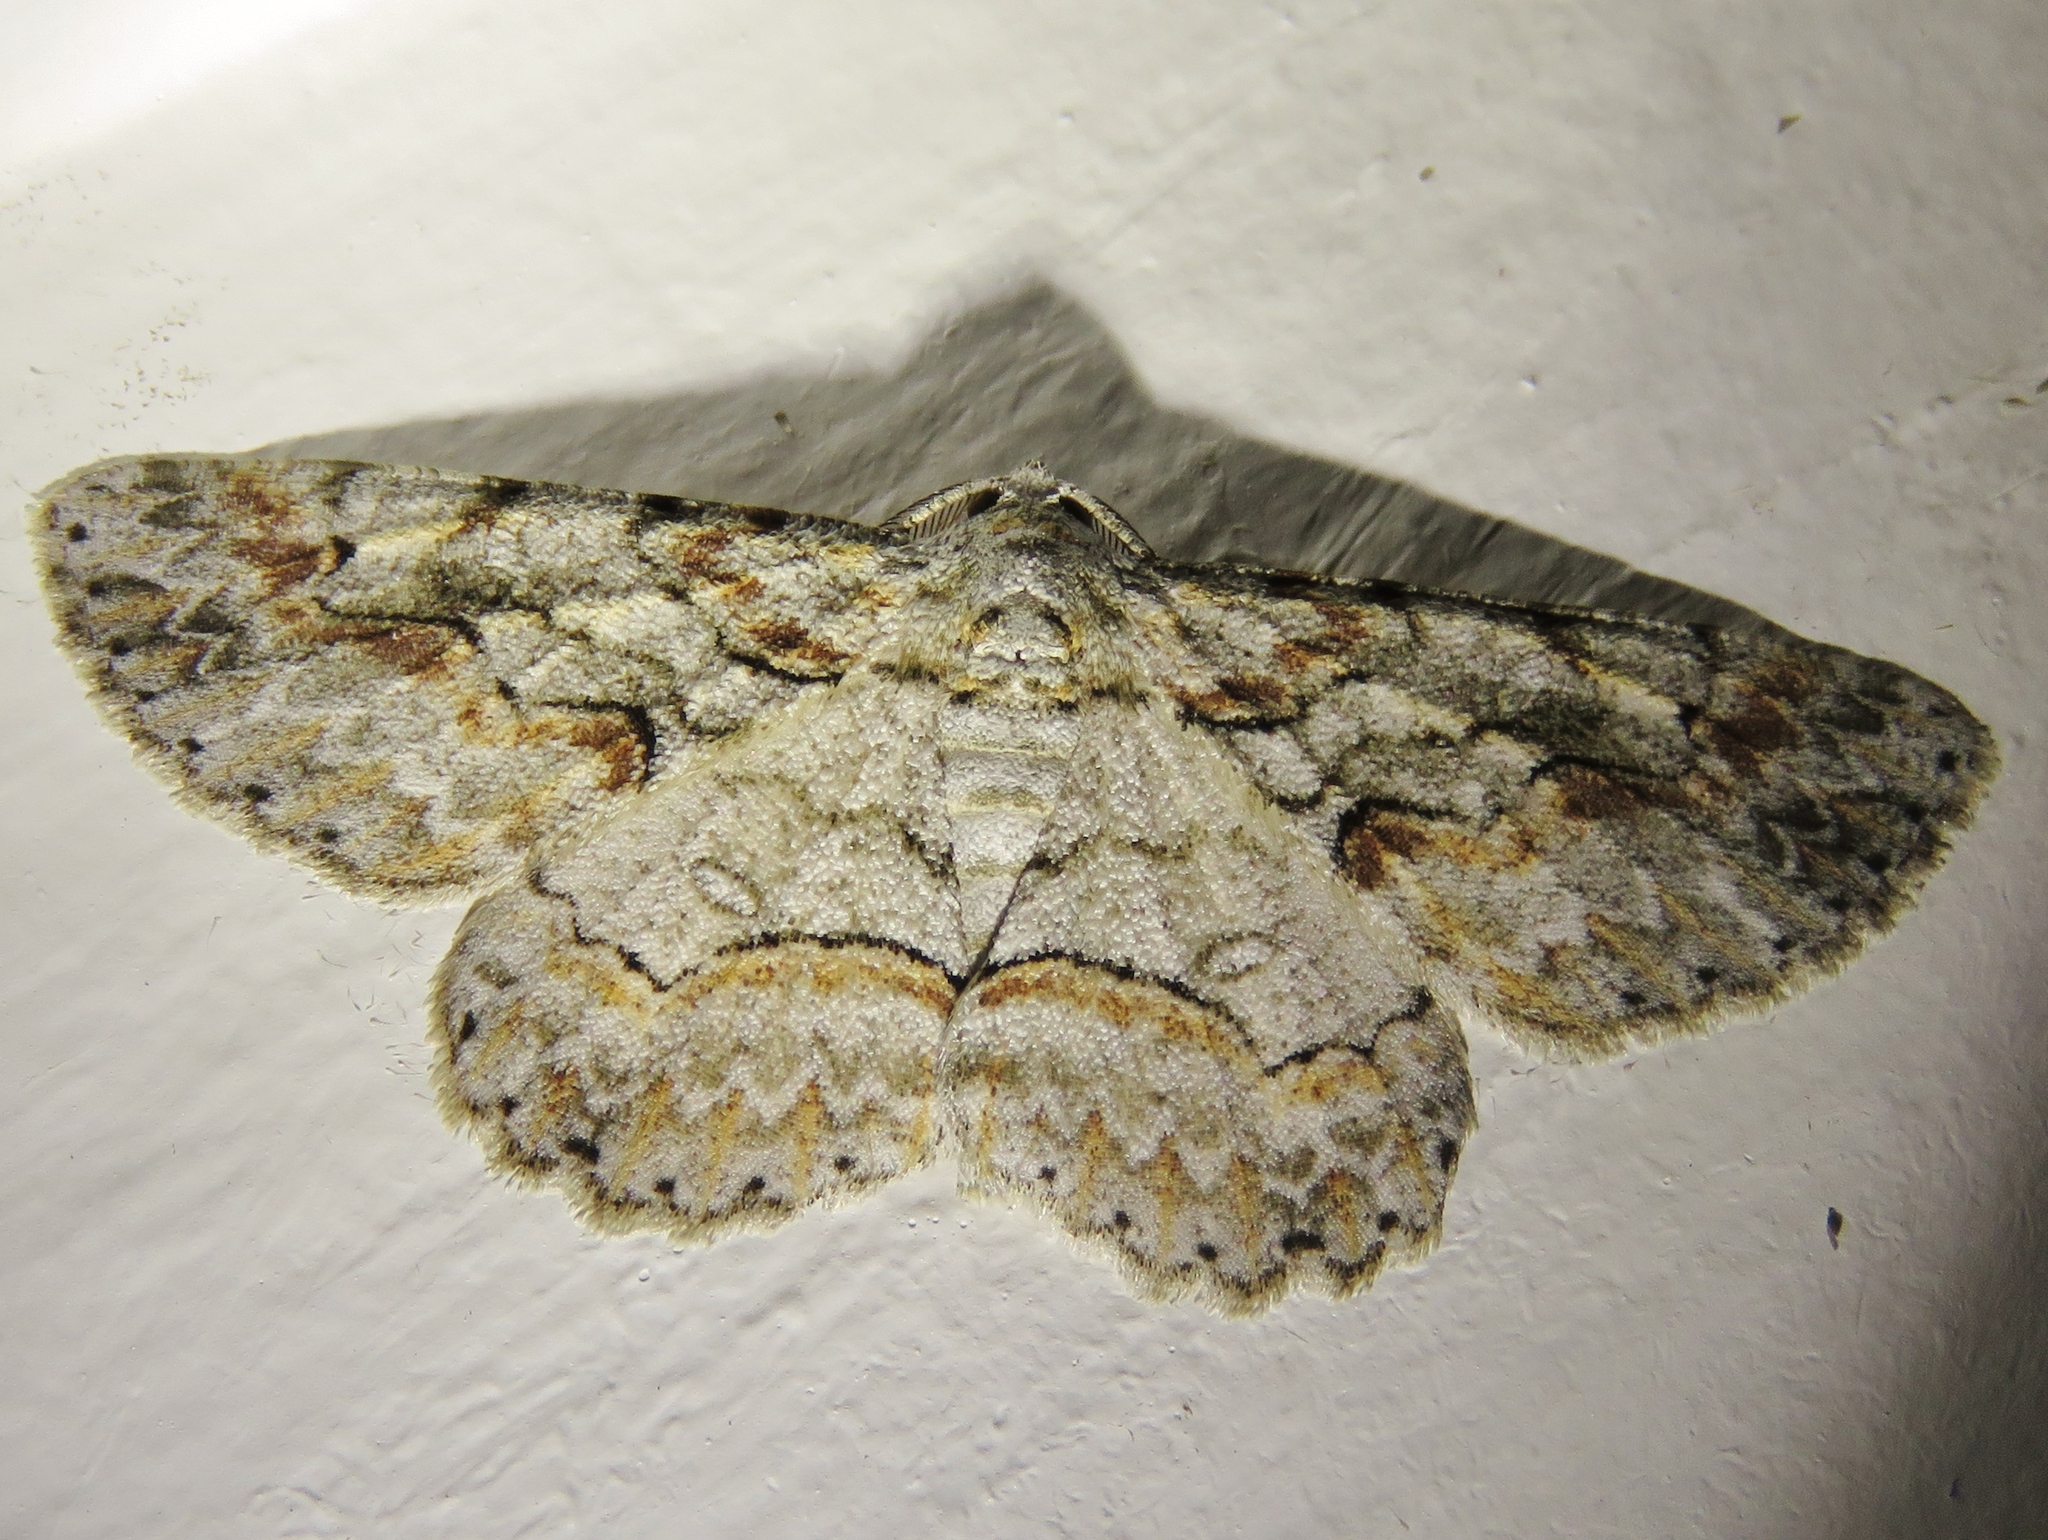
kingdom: Animalia
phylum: Arthropoda
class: Insecta
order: Lepidoptera
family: Geometridae
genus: Iridopsis
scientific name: Iridopsis defectaria
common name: Brown-shaded gray
